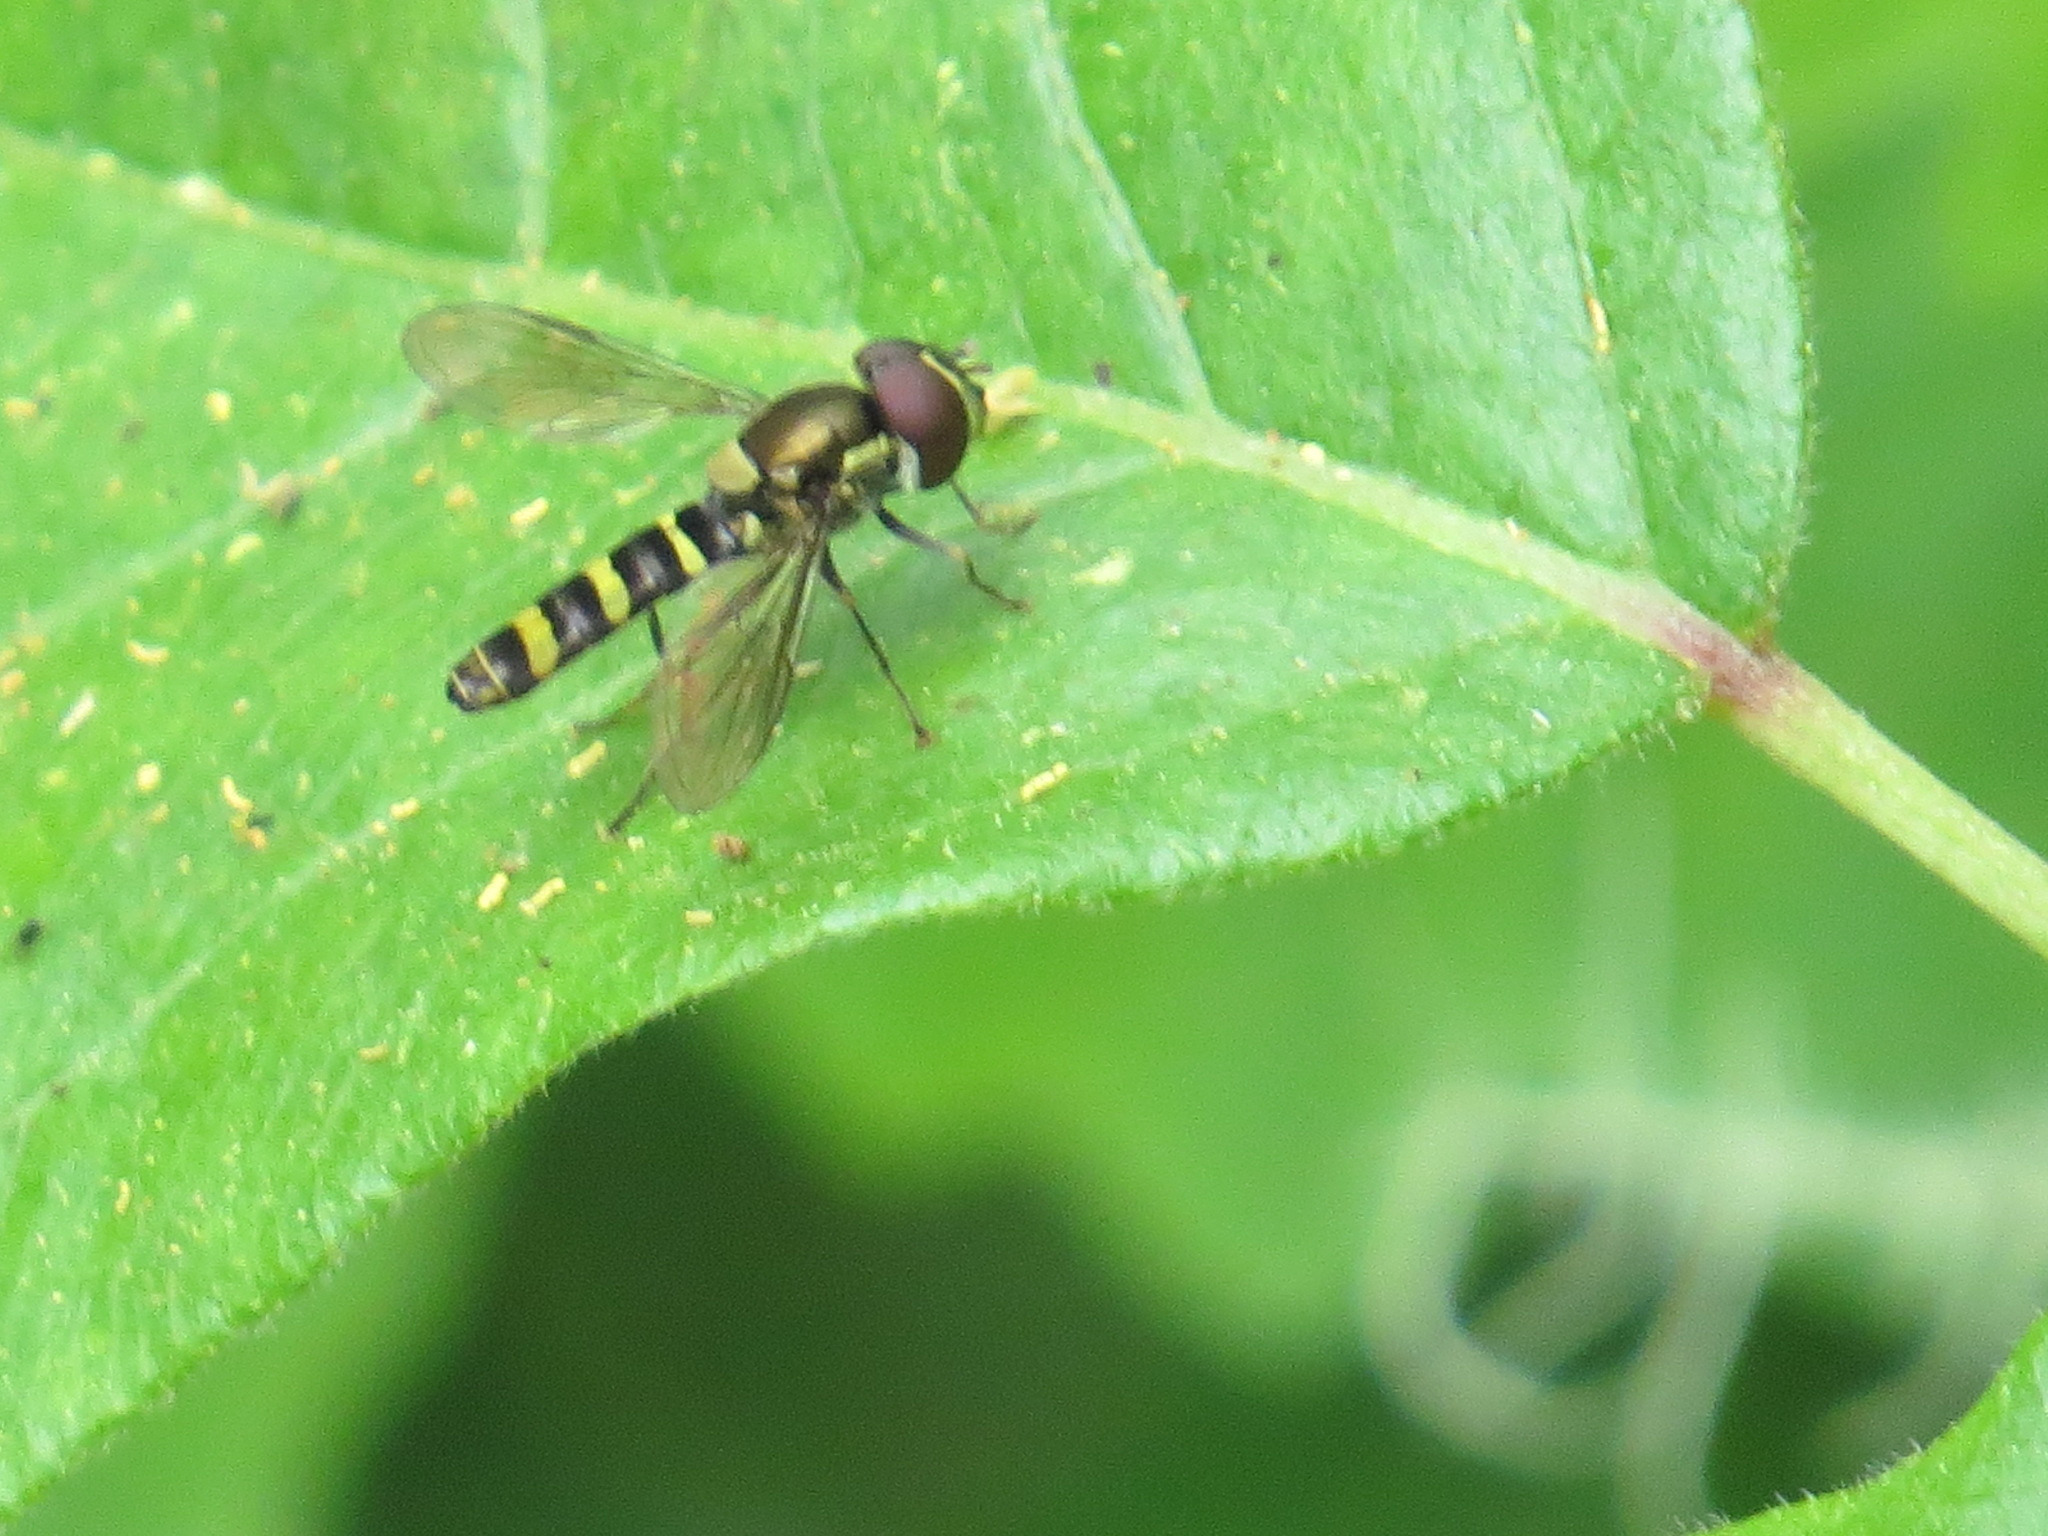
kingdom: Animalia
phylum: Arthropoda
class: Insecta
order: Diptera
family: Syrphidae
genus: Fazia
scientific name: Fazia micrura
